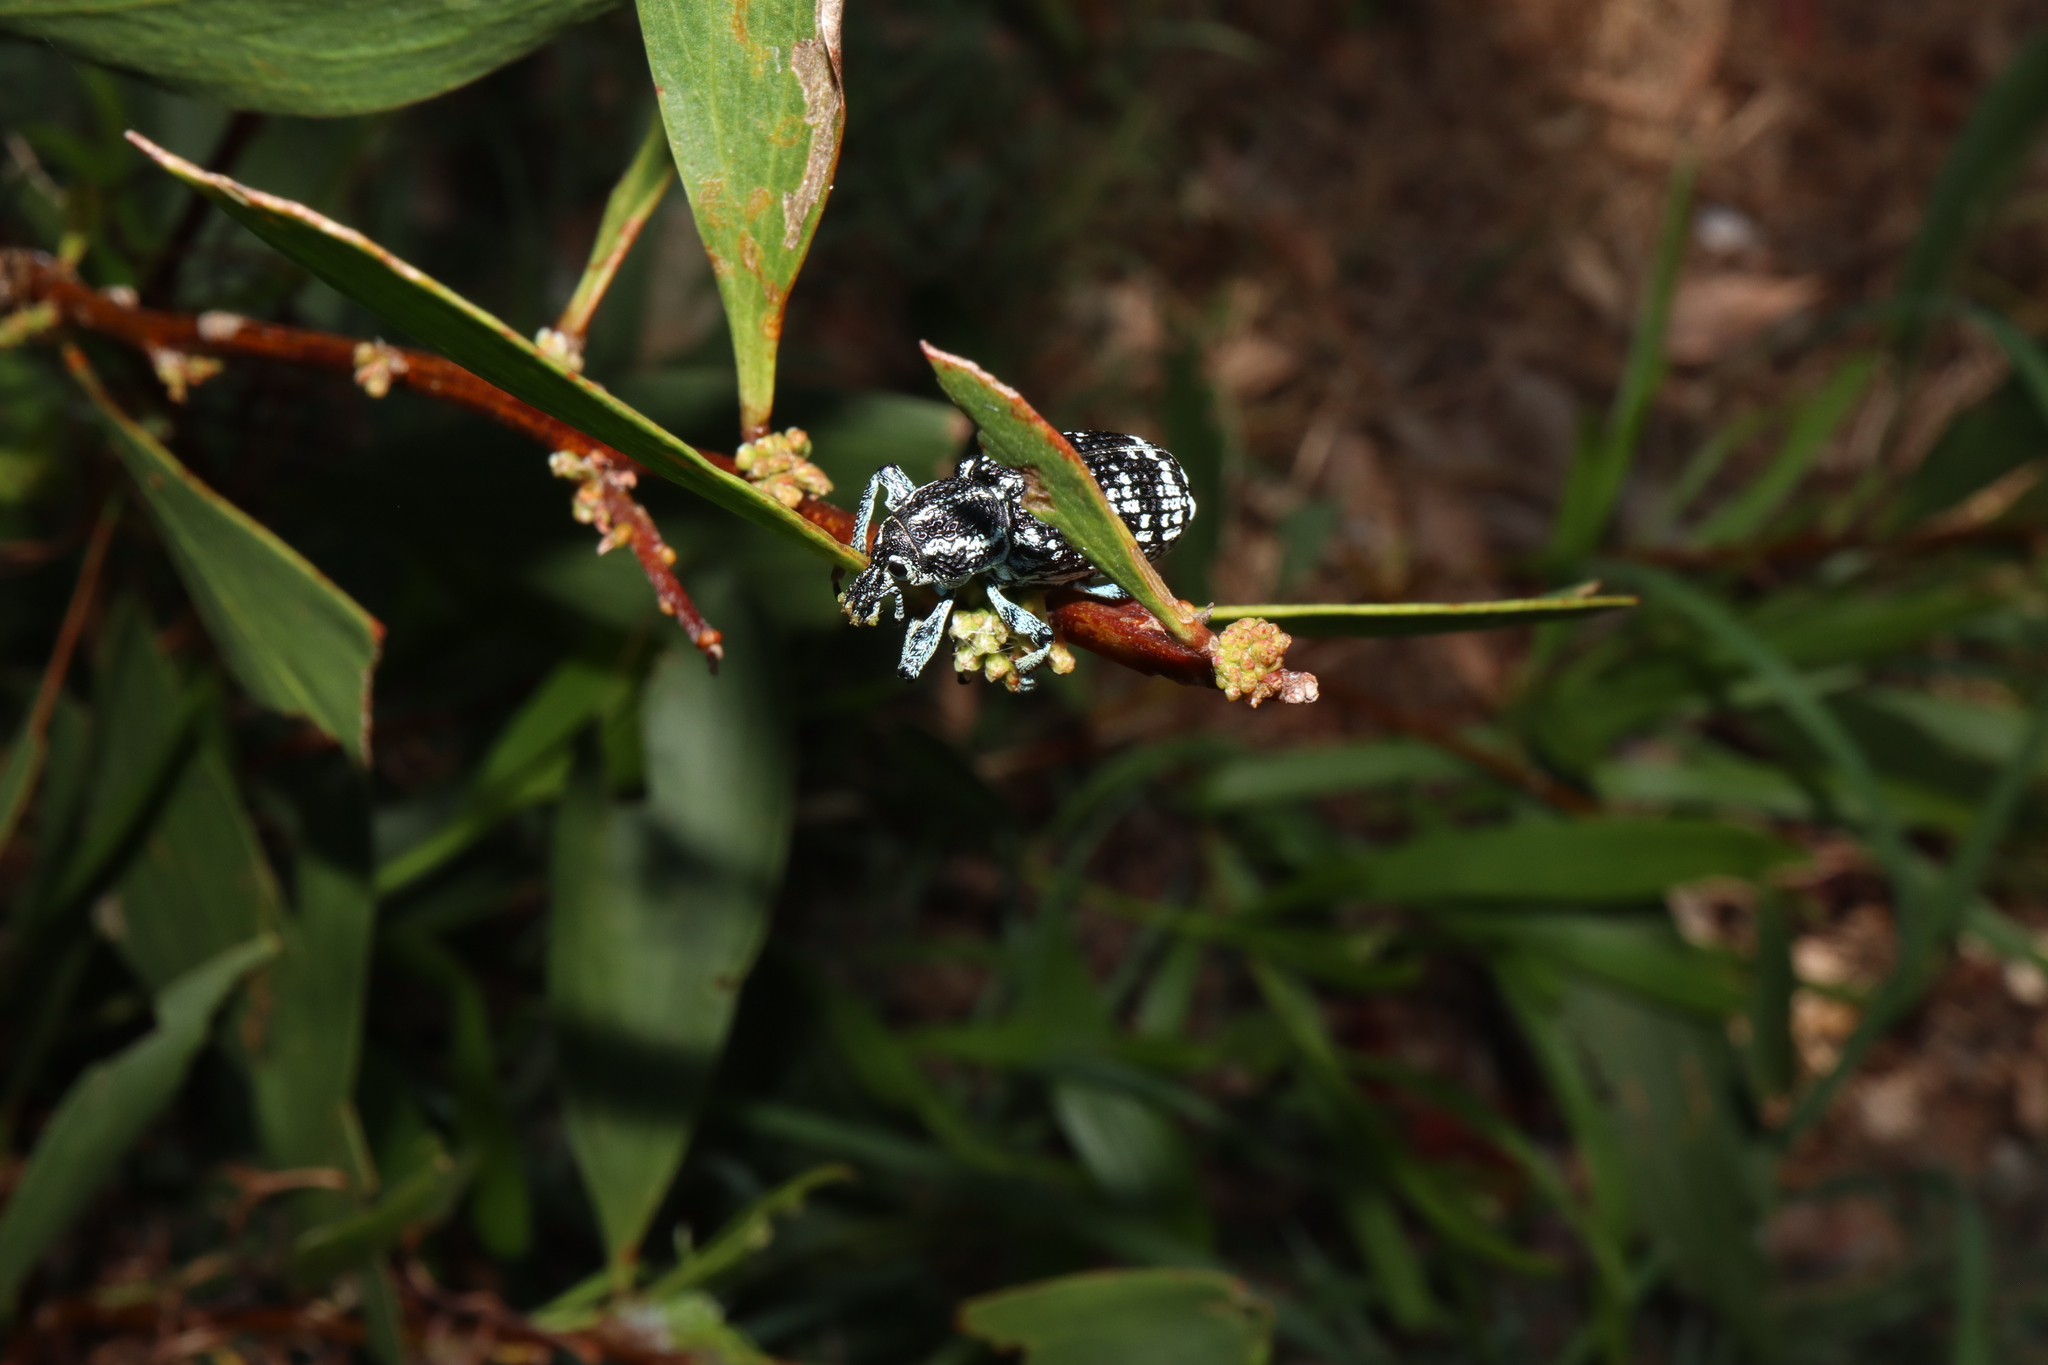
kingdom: Animalia
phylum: Arthropoda
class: Insecta
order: Coleoptera
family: Curculionidae
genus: Chrysolopus
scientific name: Chrysolopus spectabilis
